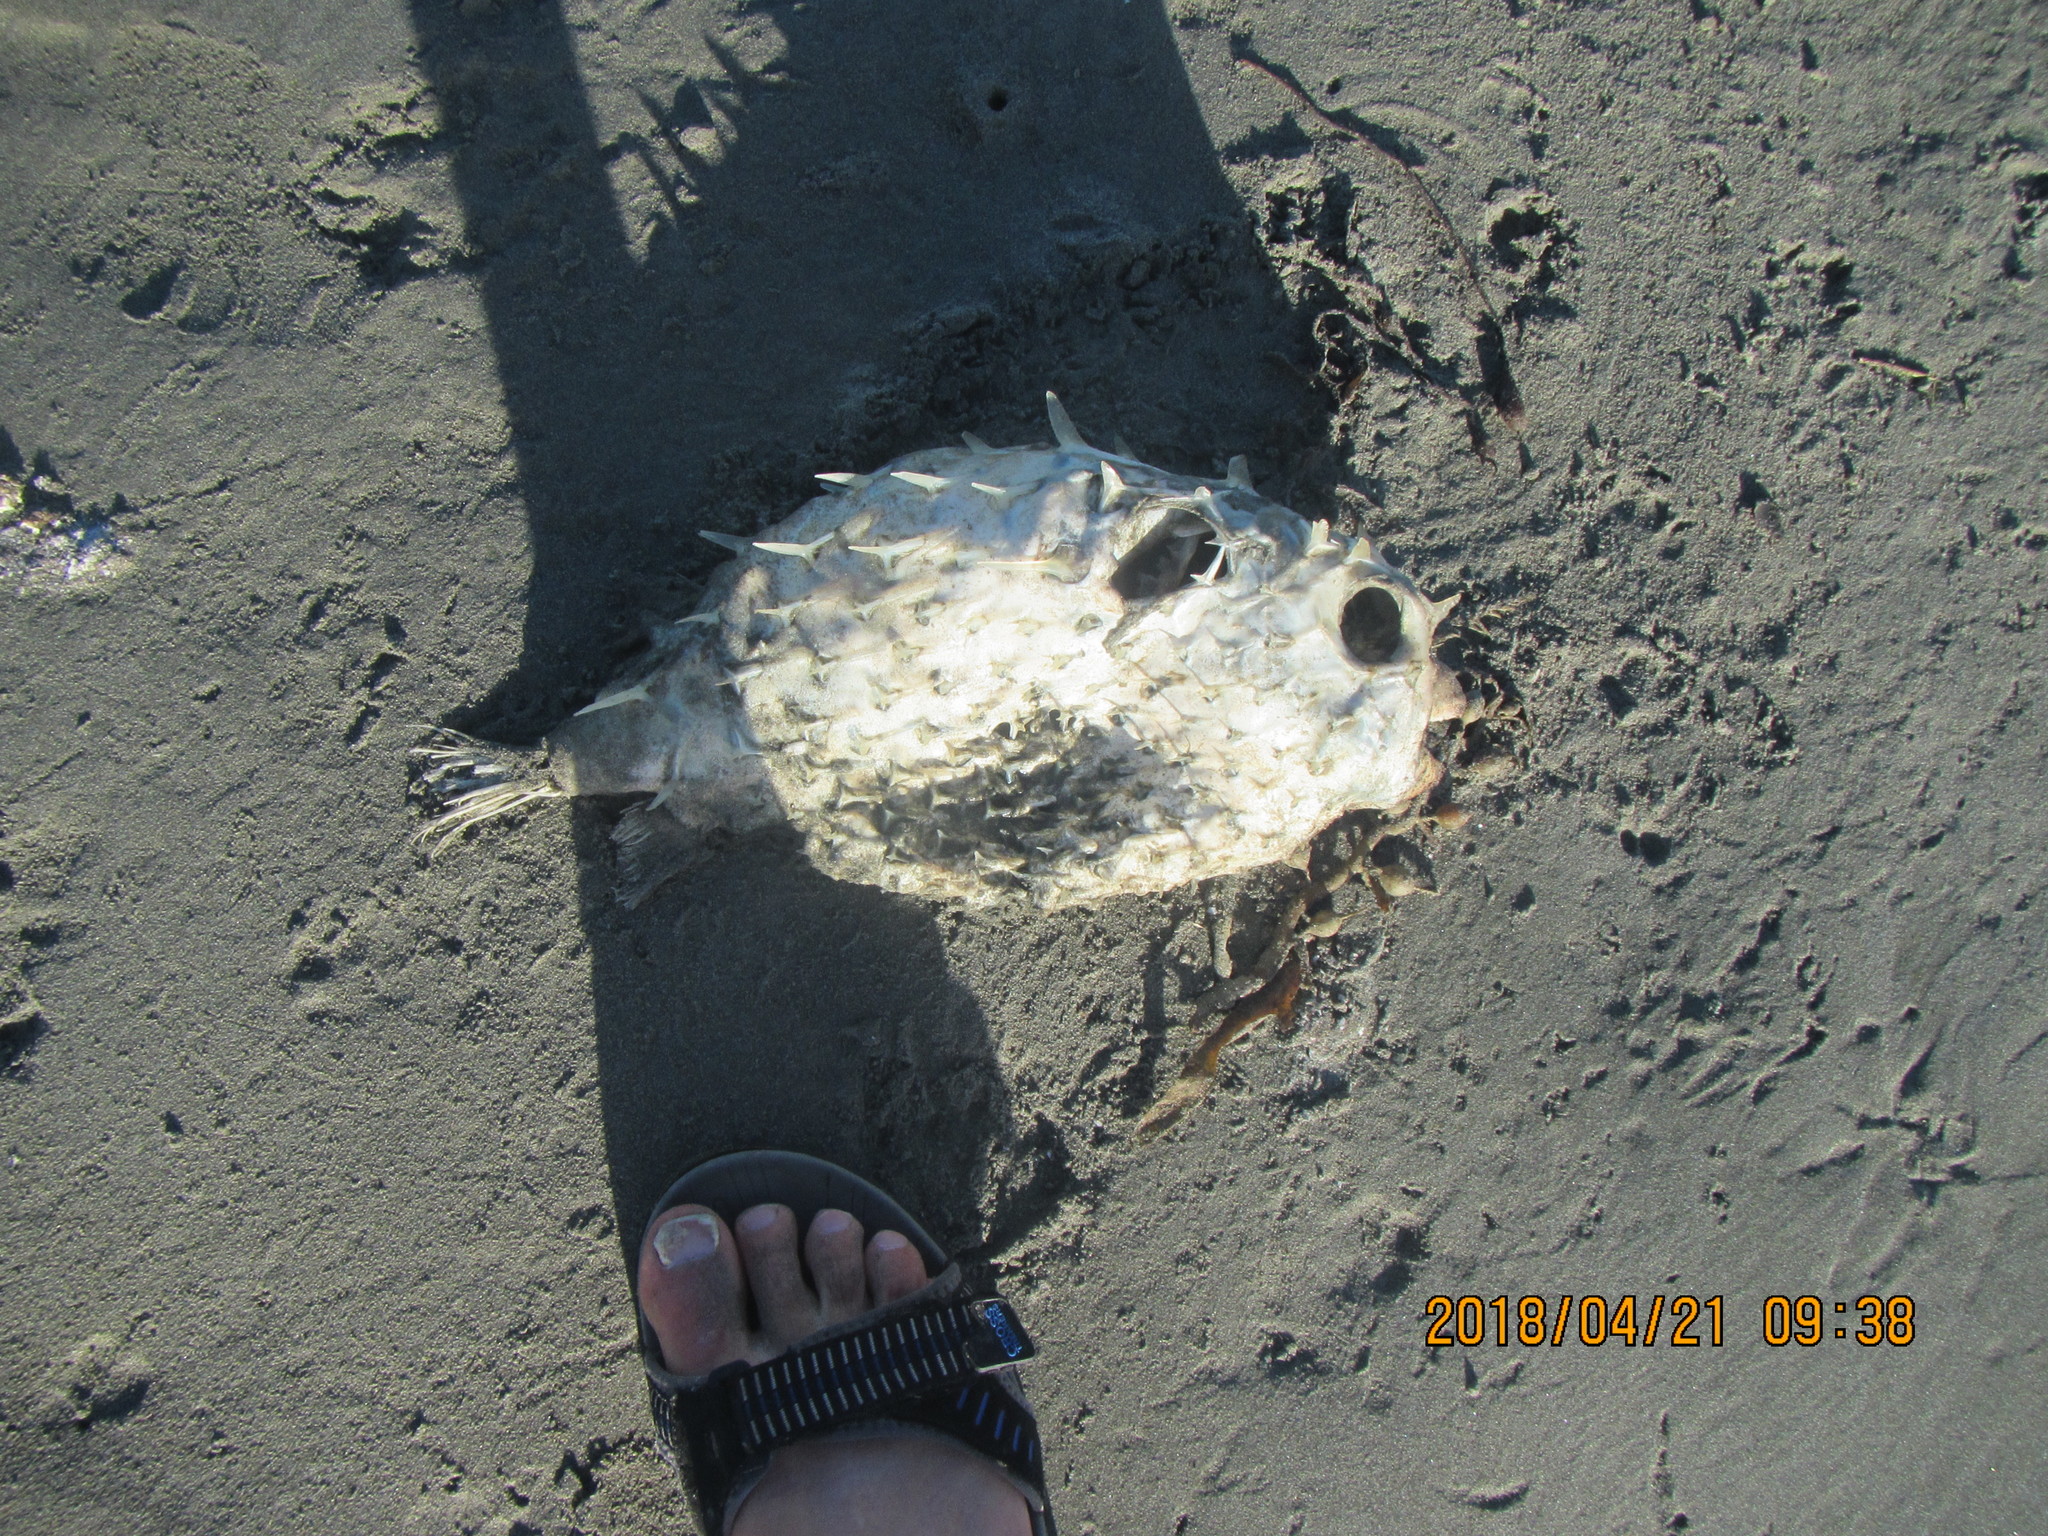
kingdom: Animalia
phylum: Chordata
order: Tetraodontiformes
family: Diodontidae
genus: Allomycterus
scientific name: Allomycterus pilatus
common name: No common name
